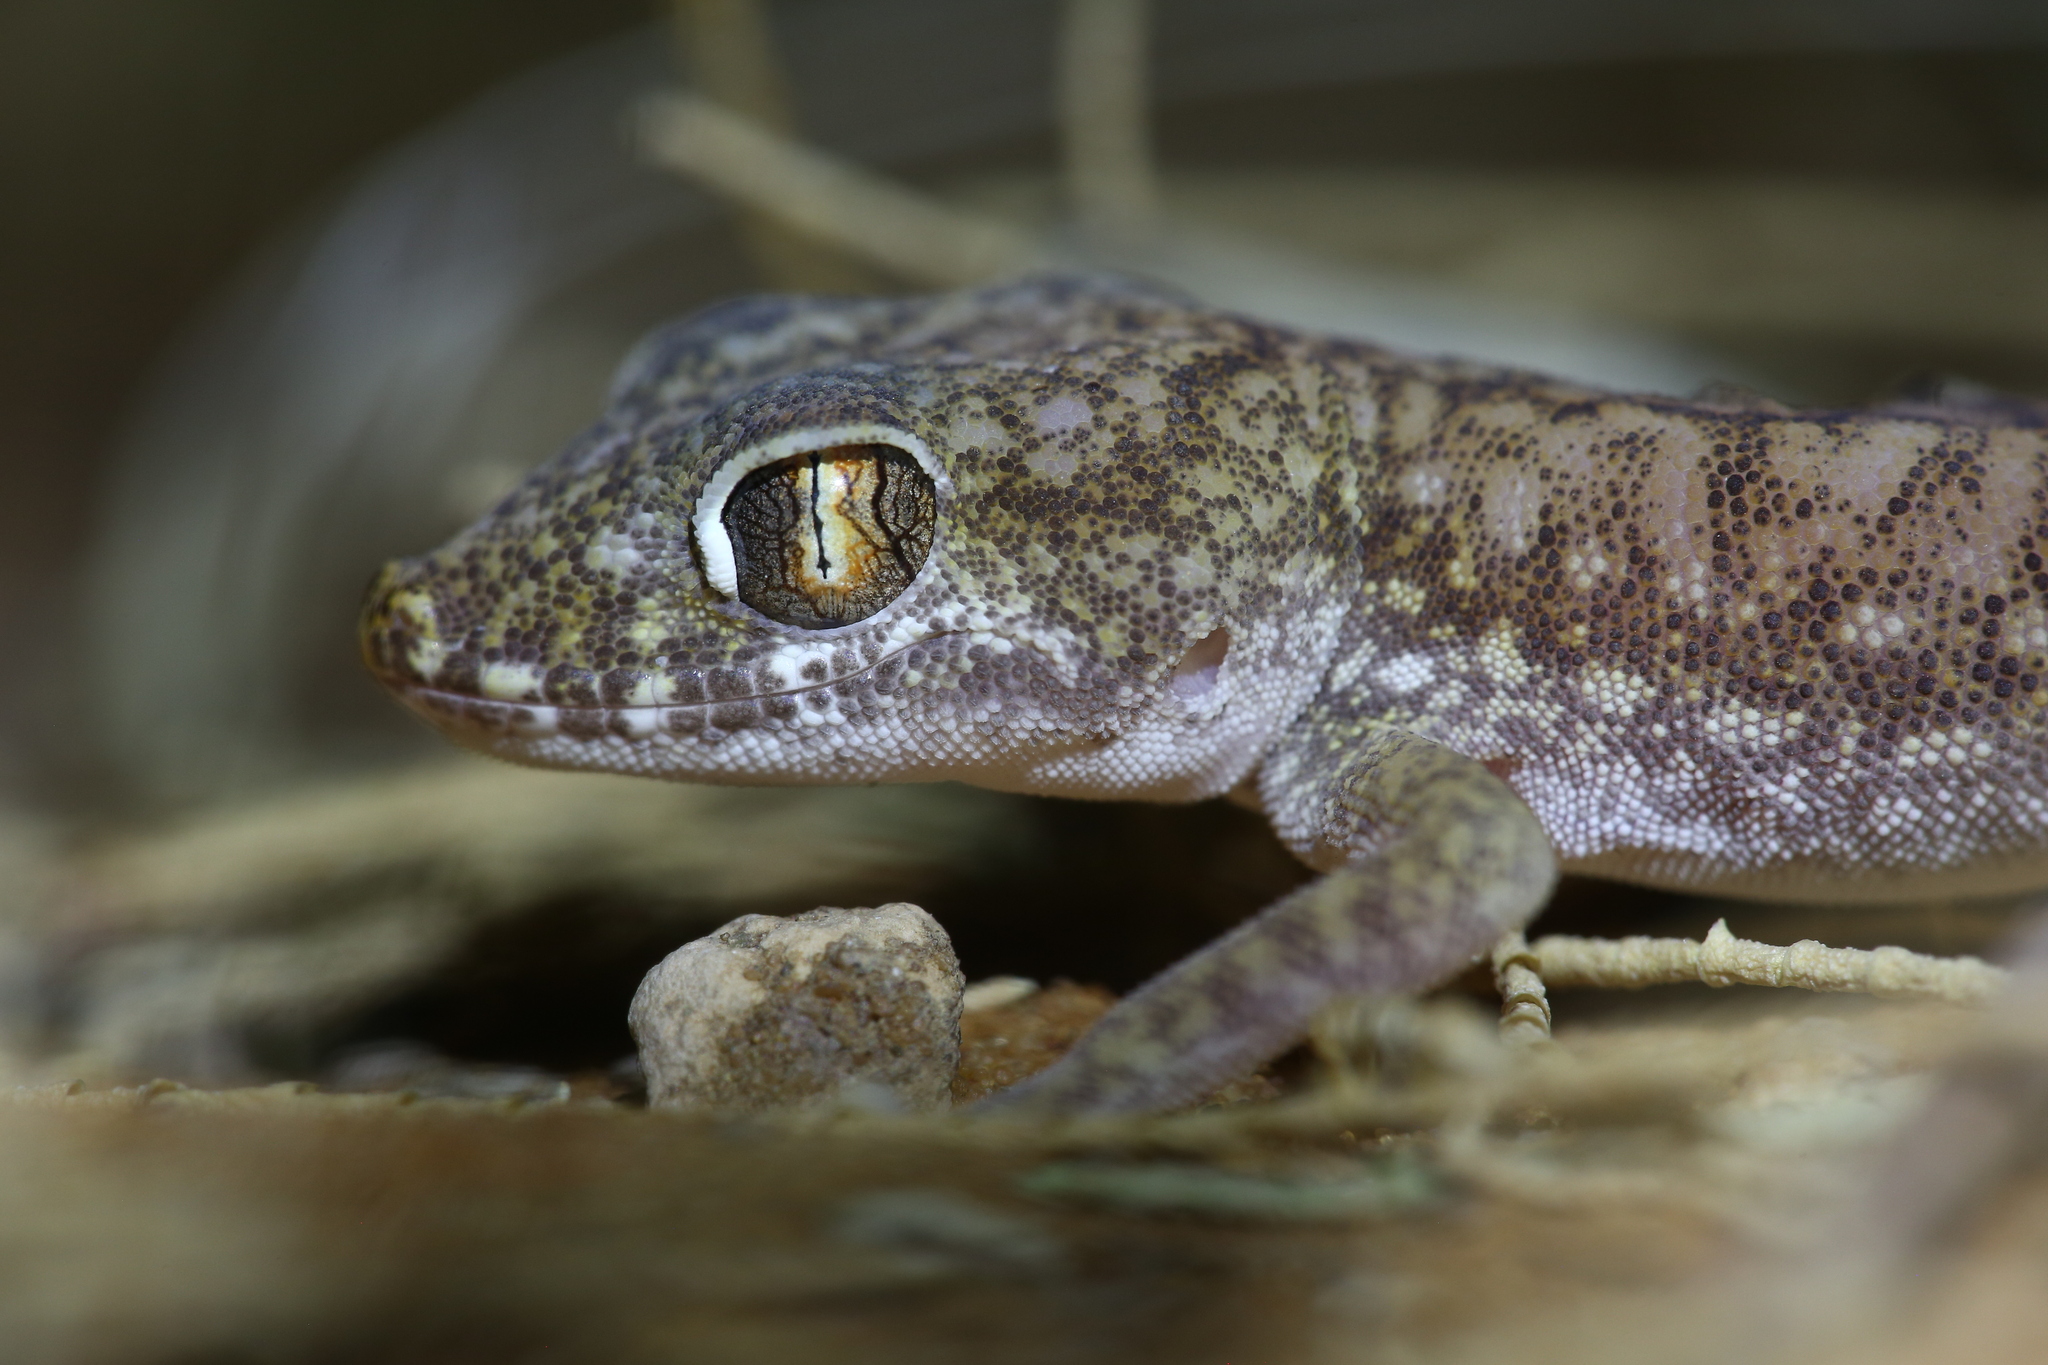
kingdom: Animalia
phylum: Chordata
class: Squamata
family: Gekkonidae
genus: Stenodactylus
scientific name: Stenodactylus petrii
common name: Anderson's short-fingered gecko
